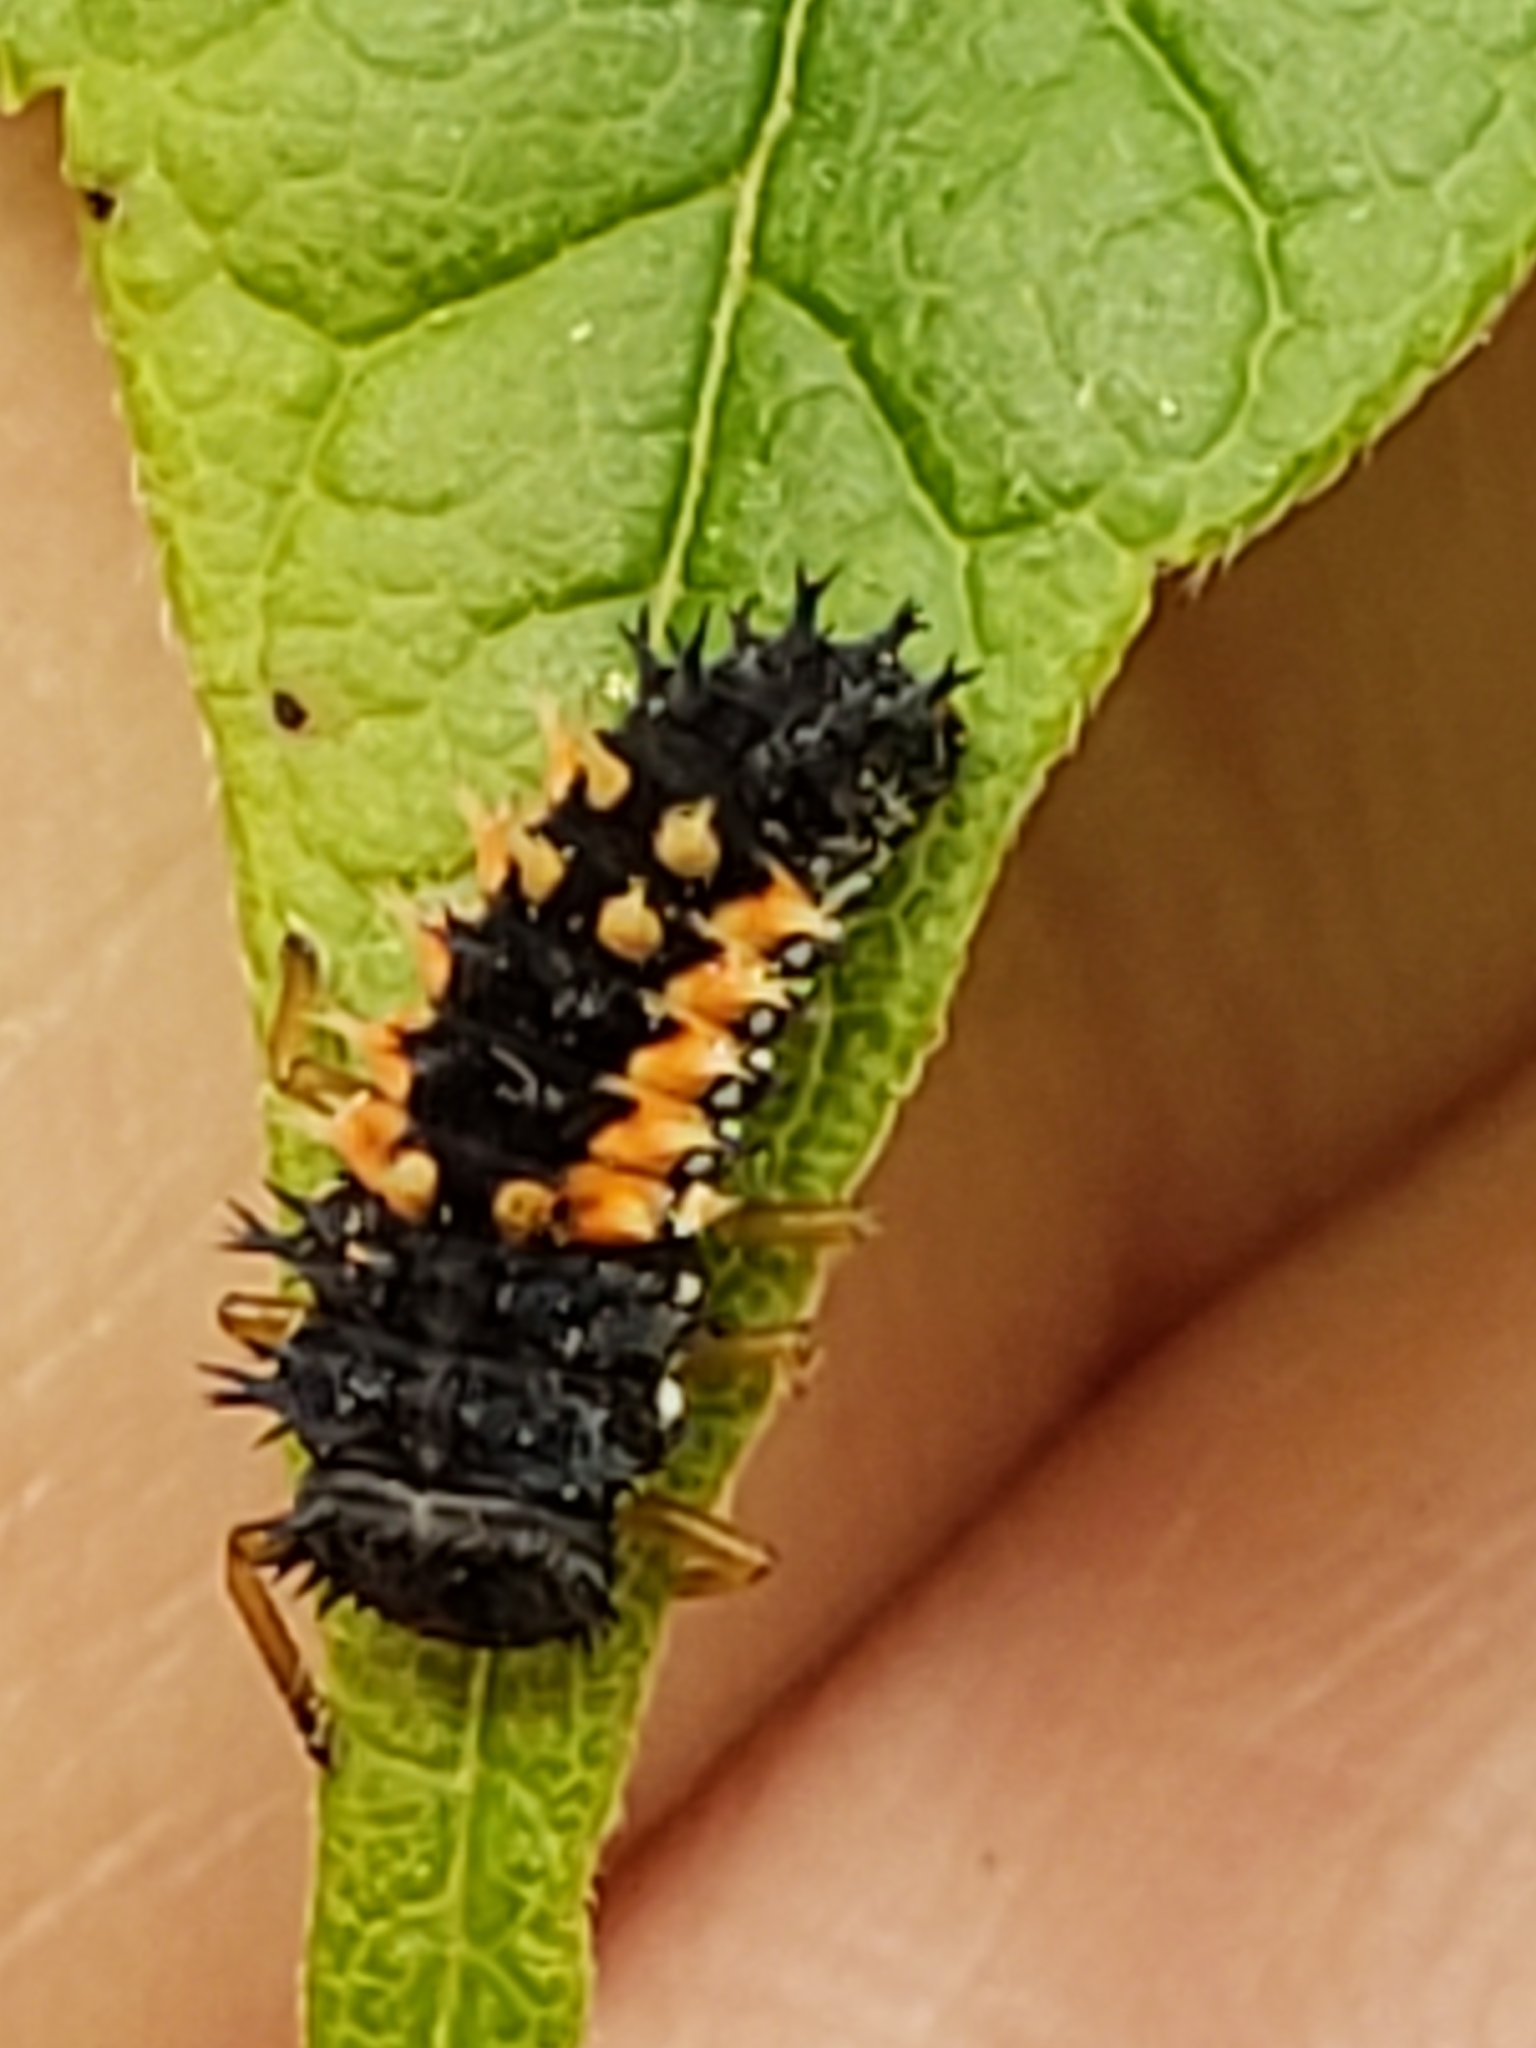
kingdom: Animalia
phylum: Arthropoda
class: Insecta
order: Coleoptera
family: Coccinellidae
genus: Harmonia
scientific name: Harmonia axyridis
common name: Harlequin ladybird
